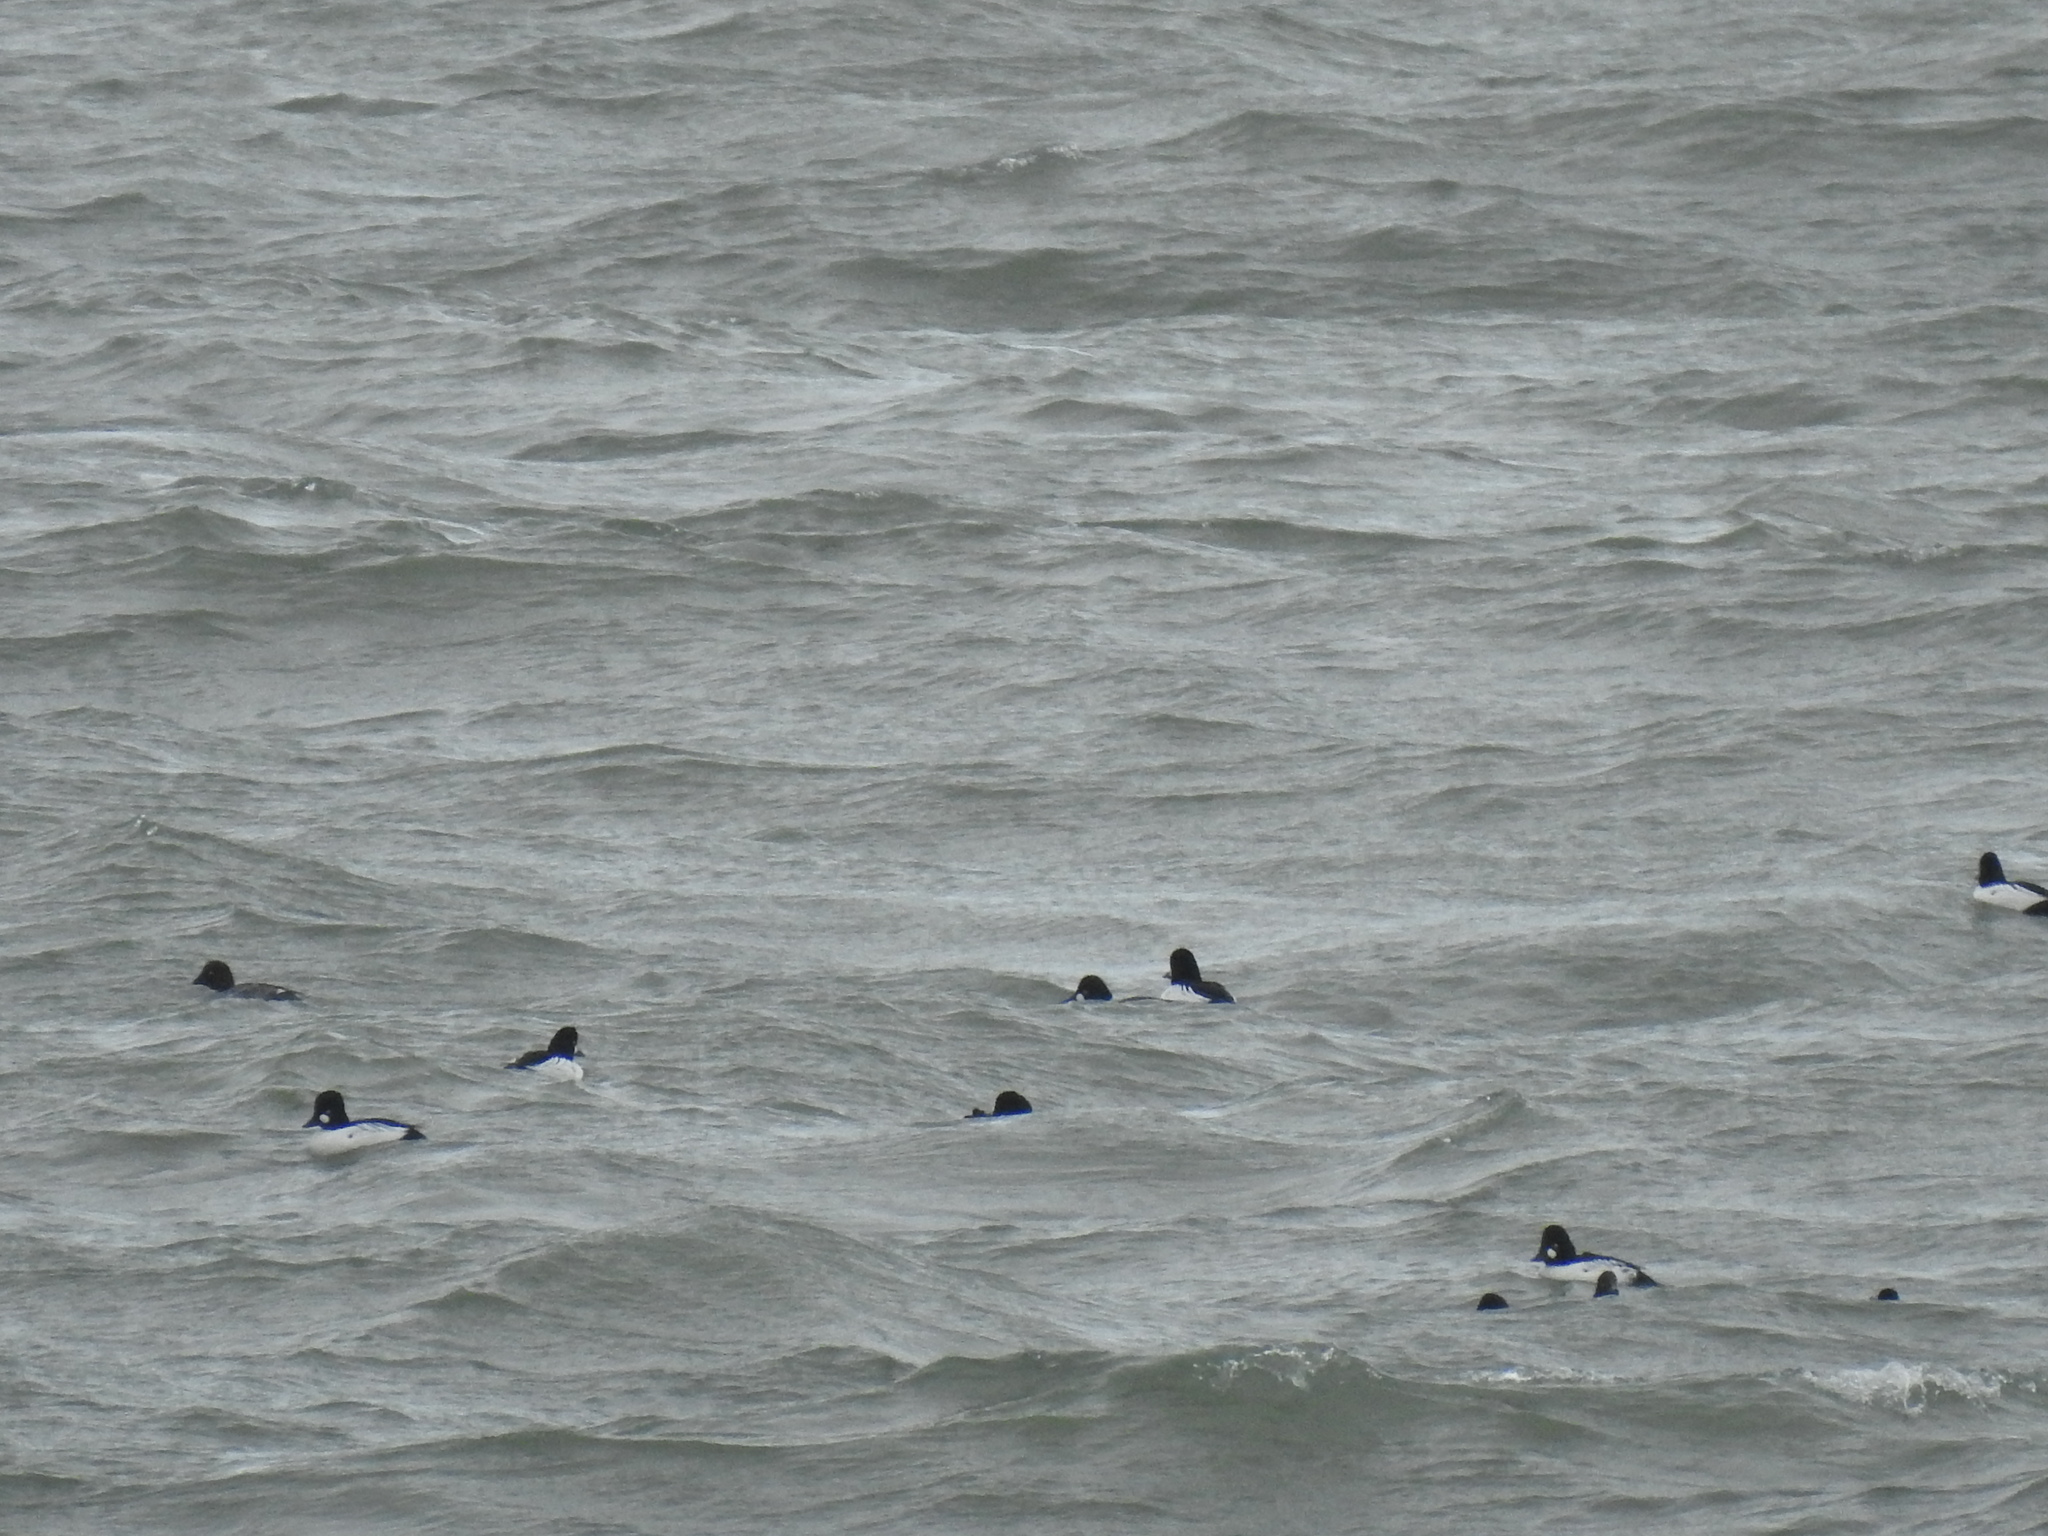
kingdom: Animalia
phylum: Chordata
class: Aves
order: Anseriformes
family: Anatidae
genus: Bucephala
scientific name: Bucephala clangula
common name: Common goldeneye
